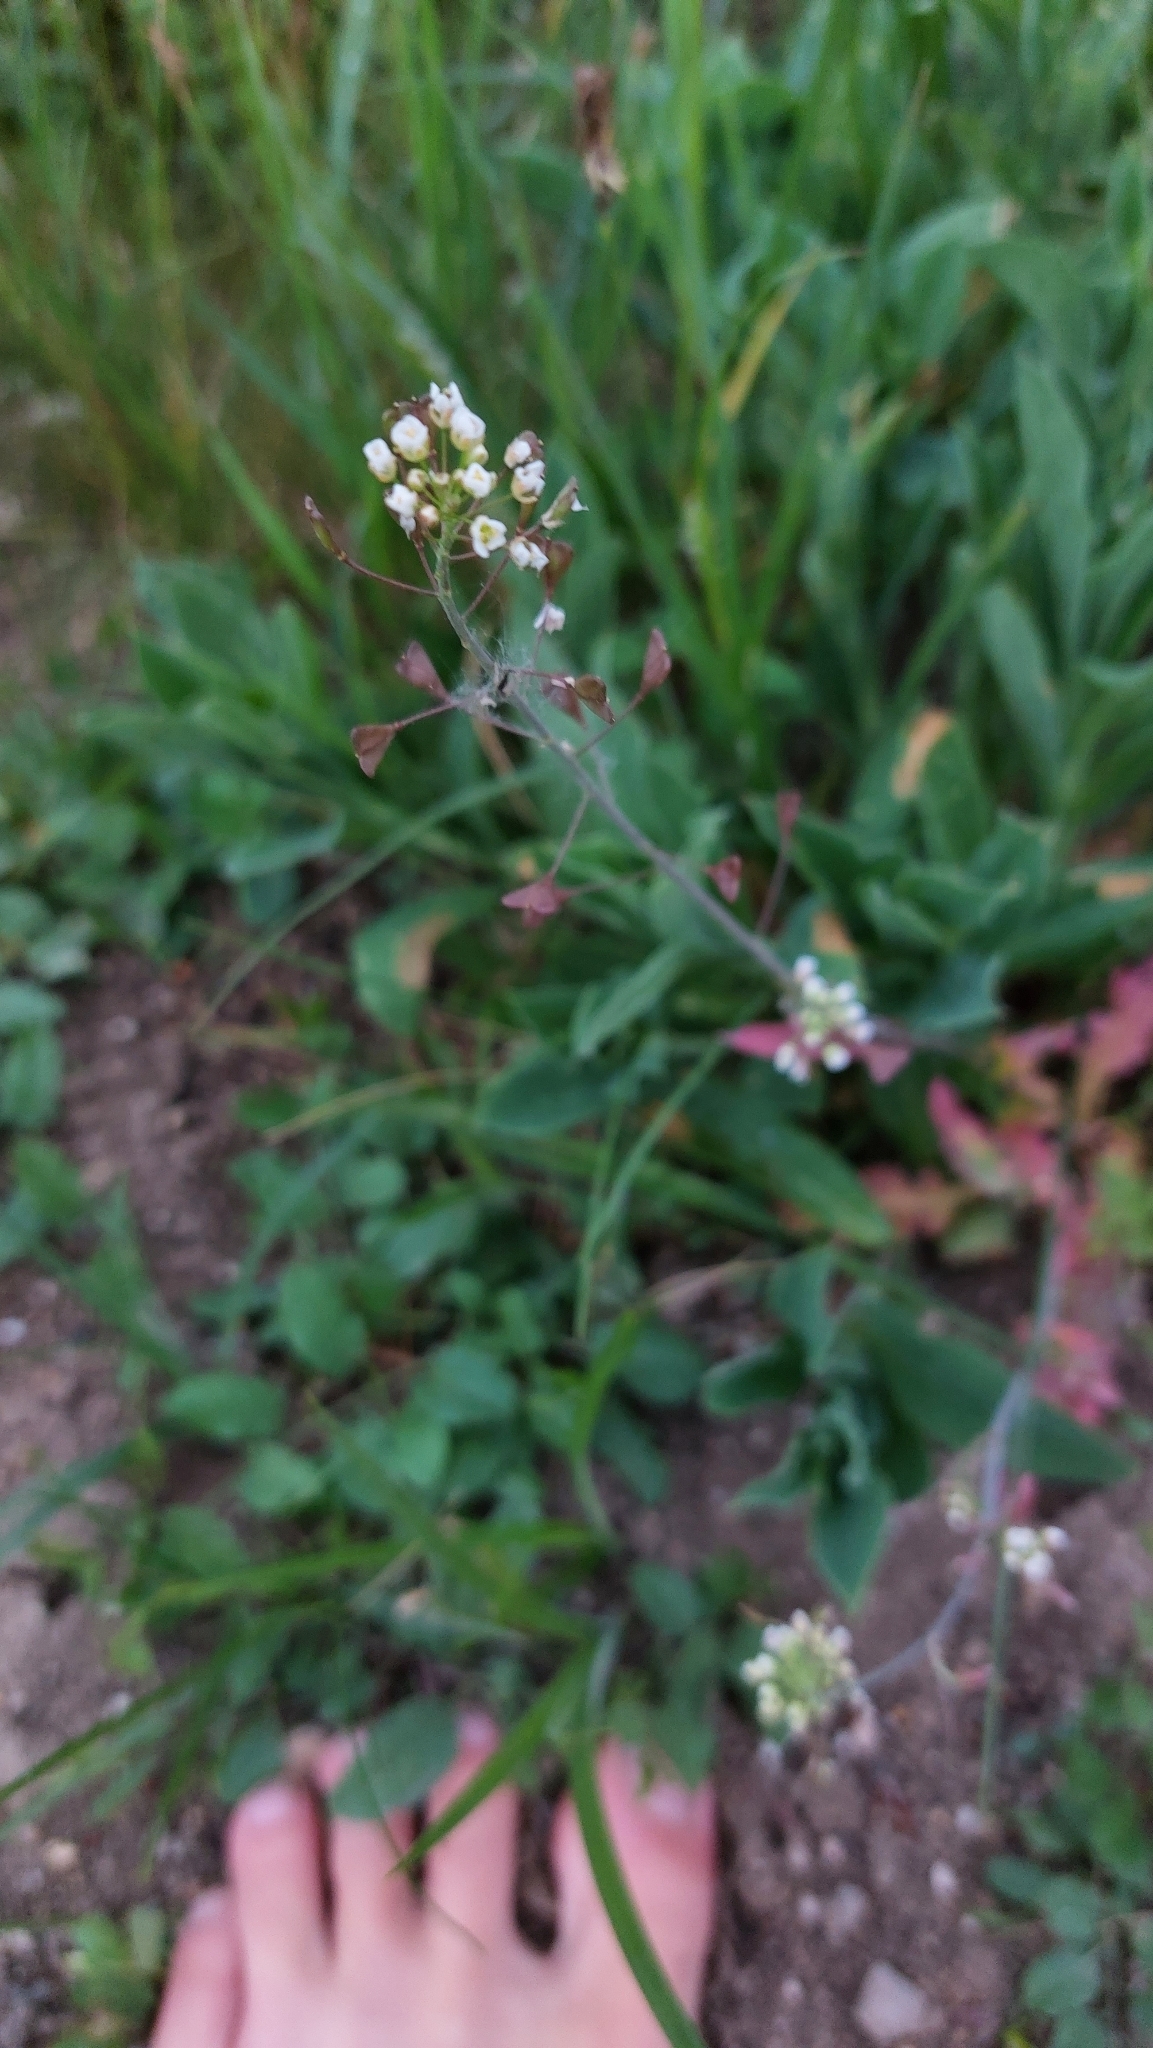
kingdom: Plantae
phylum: Tracheophyta
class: Magnoliopsida
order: Brassicales
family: Brassicaceae
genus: Capsella
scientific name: Capsella bursa-pastoris
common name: Shepherd's purse
